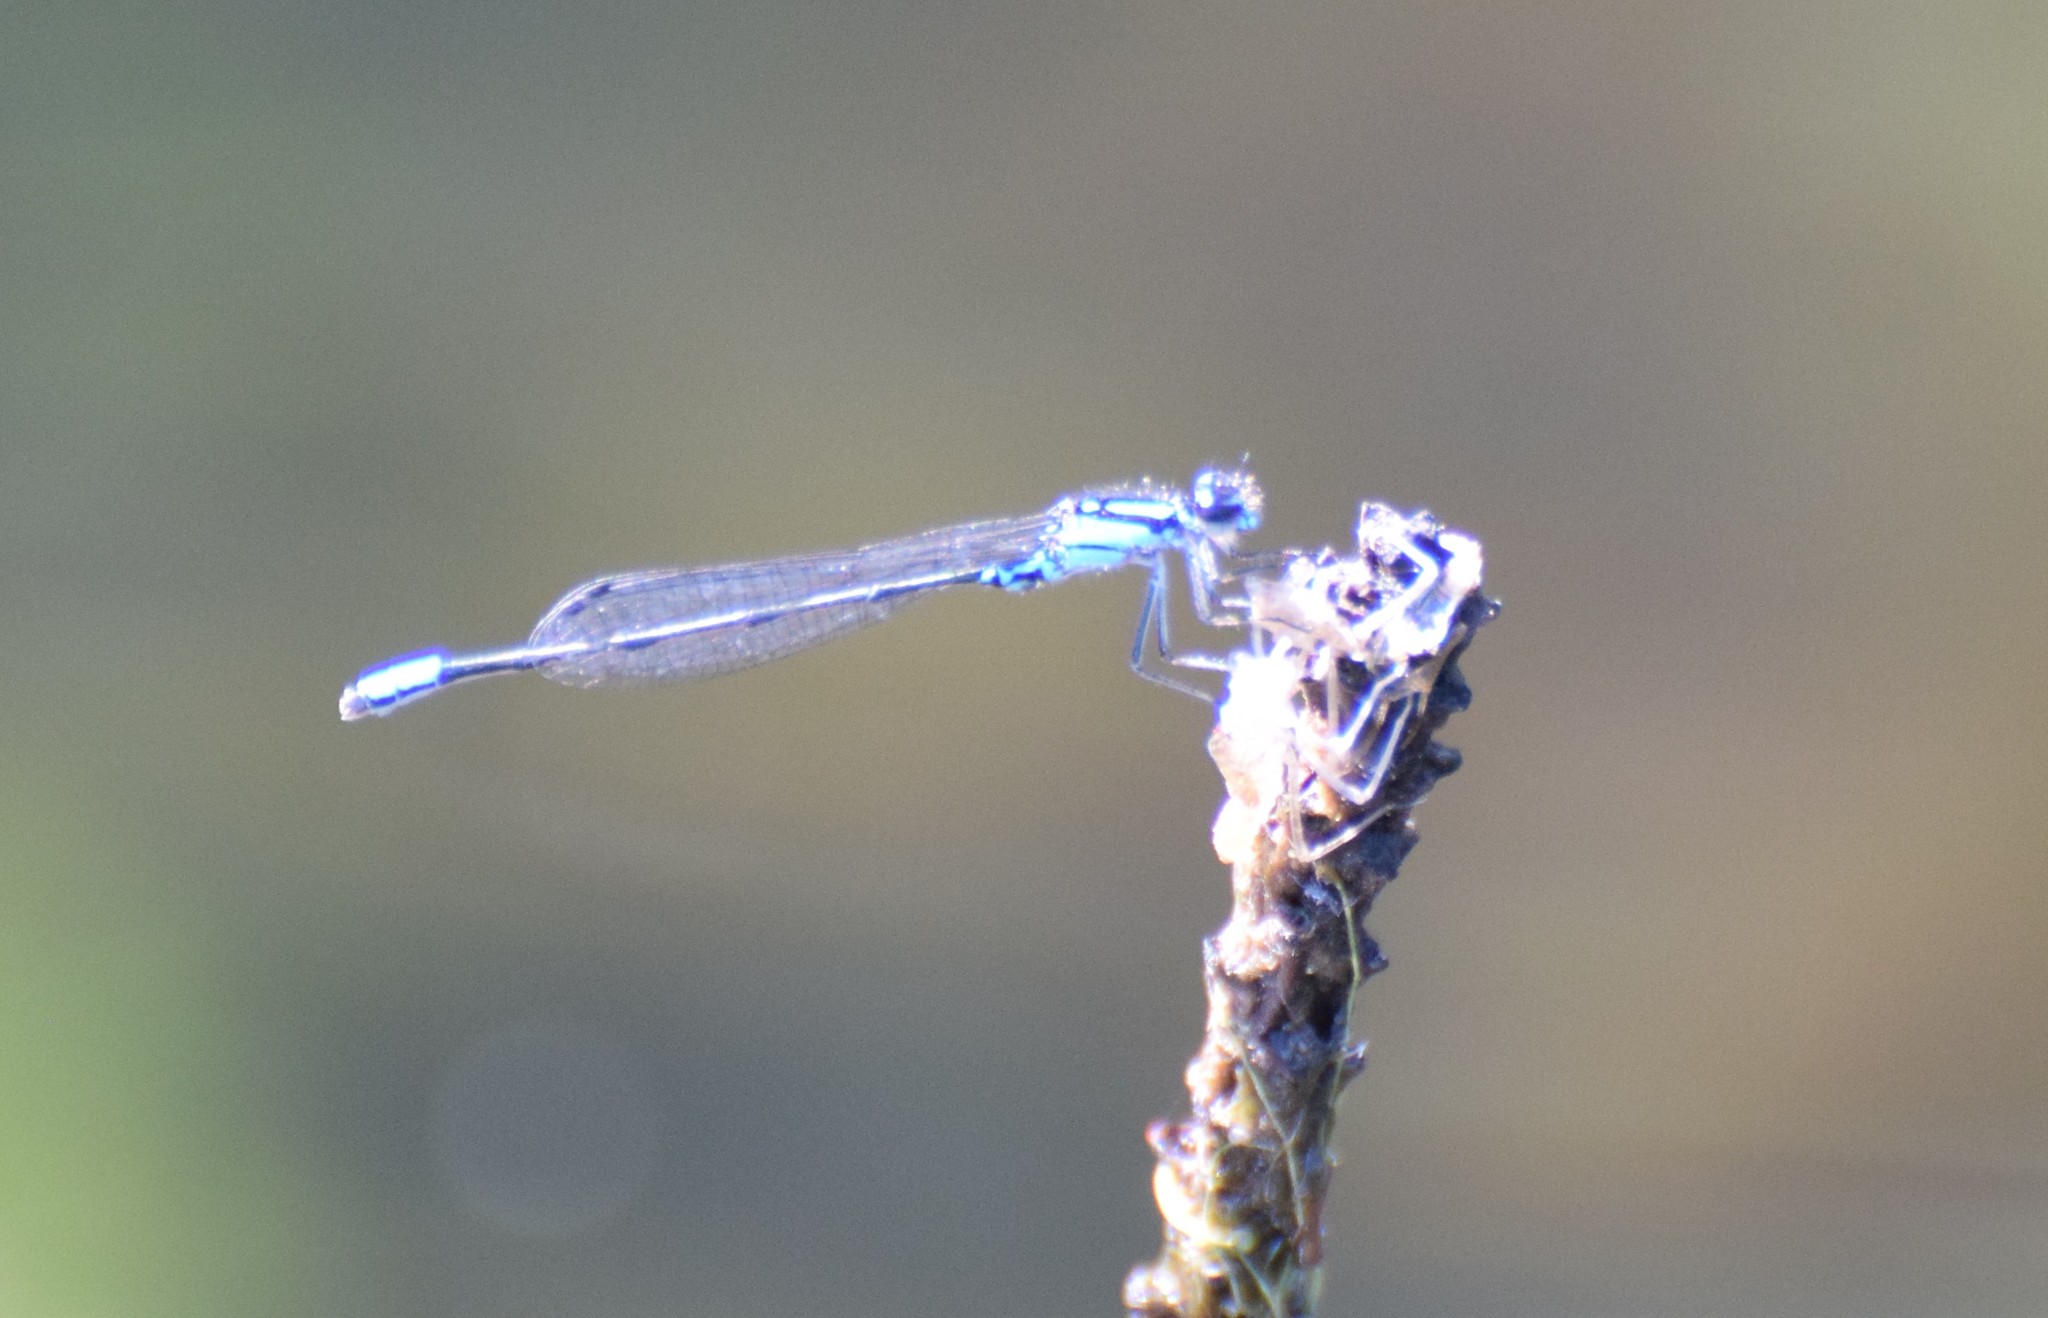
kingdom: Animalia
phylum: Arthropoda
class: Insecta
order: Odonata
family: Coenagrionidae
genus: Enallagma
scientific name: Enallagma geminatum
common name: Skimming bluet
